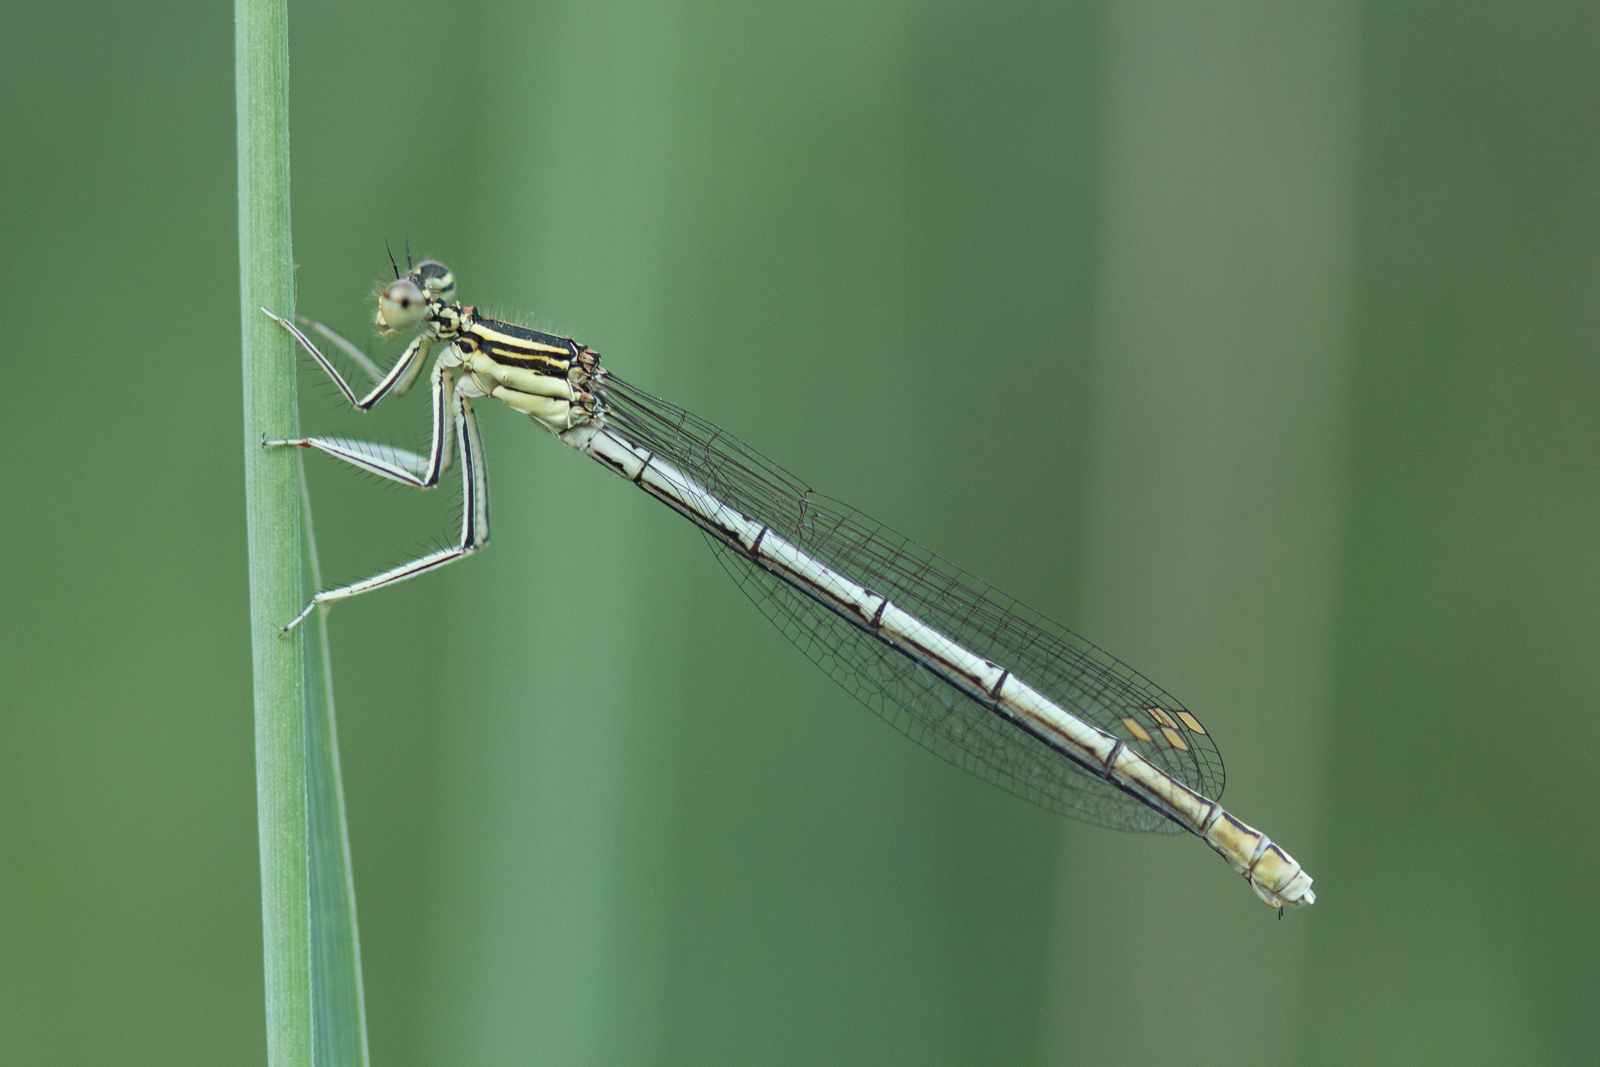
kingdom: Animalia
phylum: Arthropoda
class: Insecta
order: Odonata
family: Platycnemididae
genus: Platycnemis
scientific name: Platycnemis pennipes
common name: White-legged damselfly
